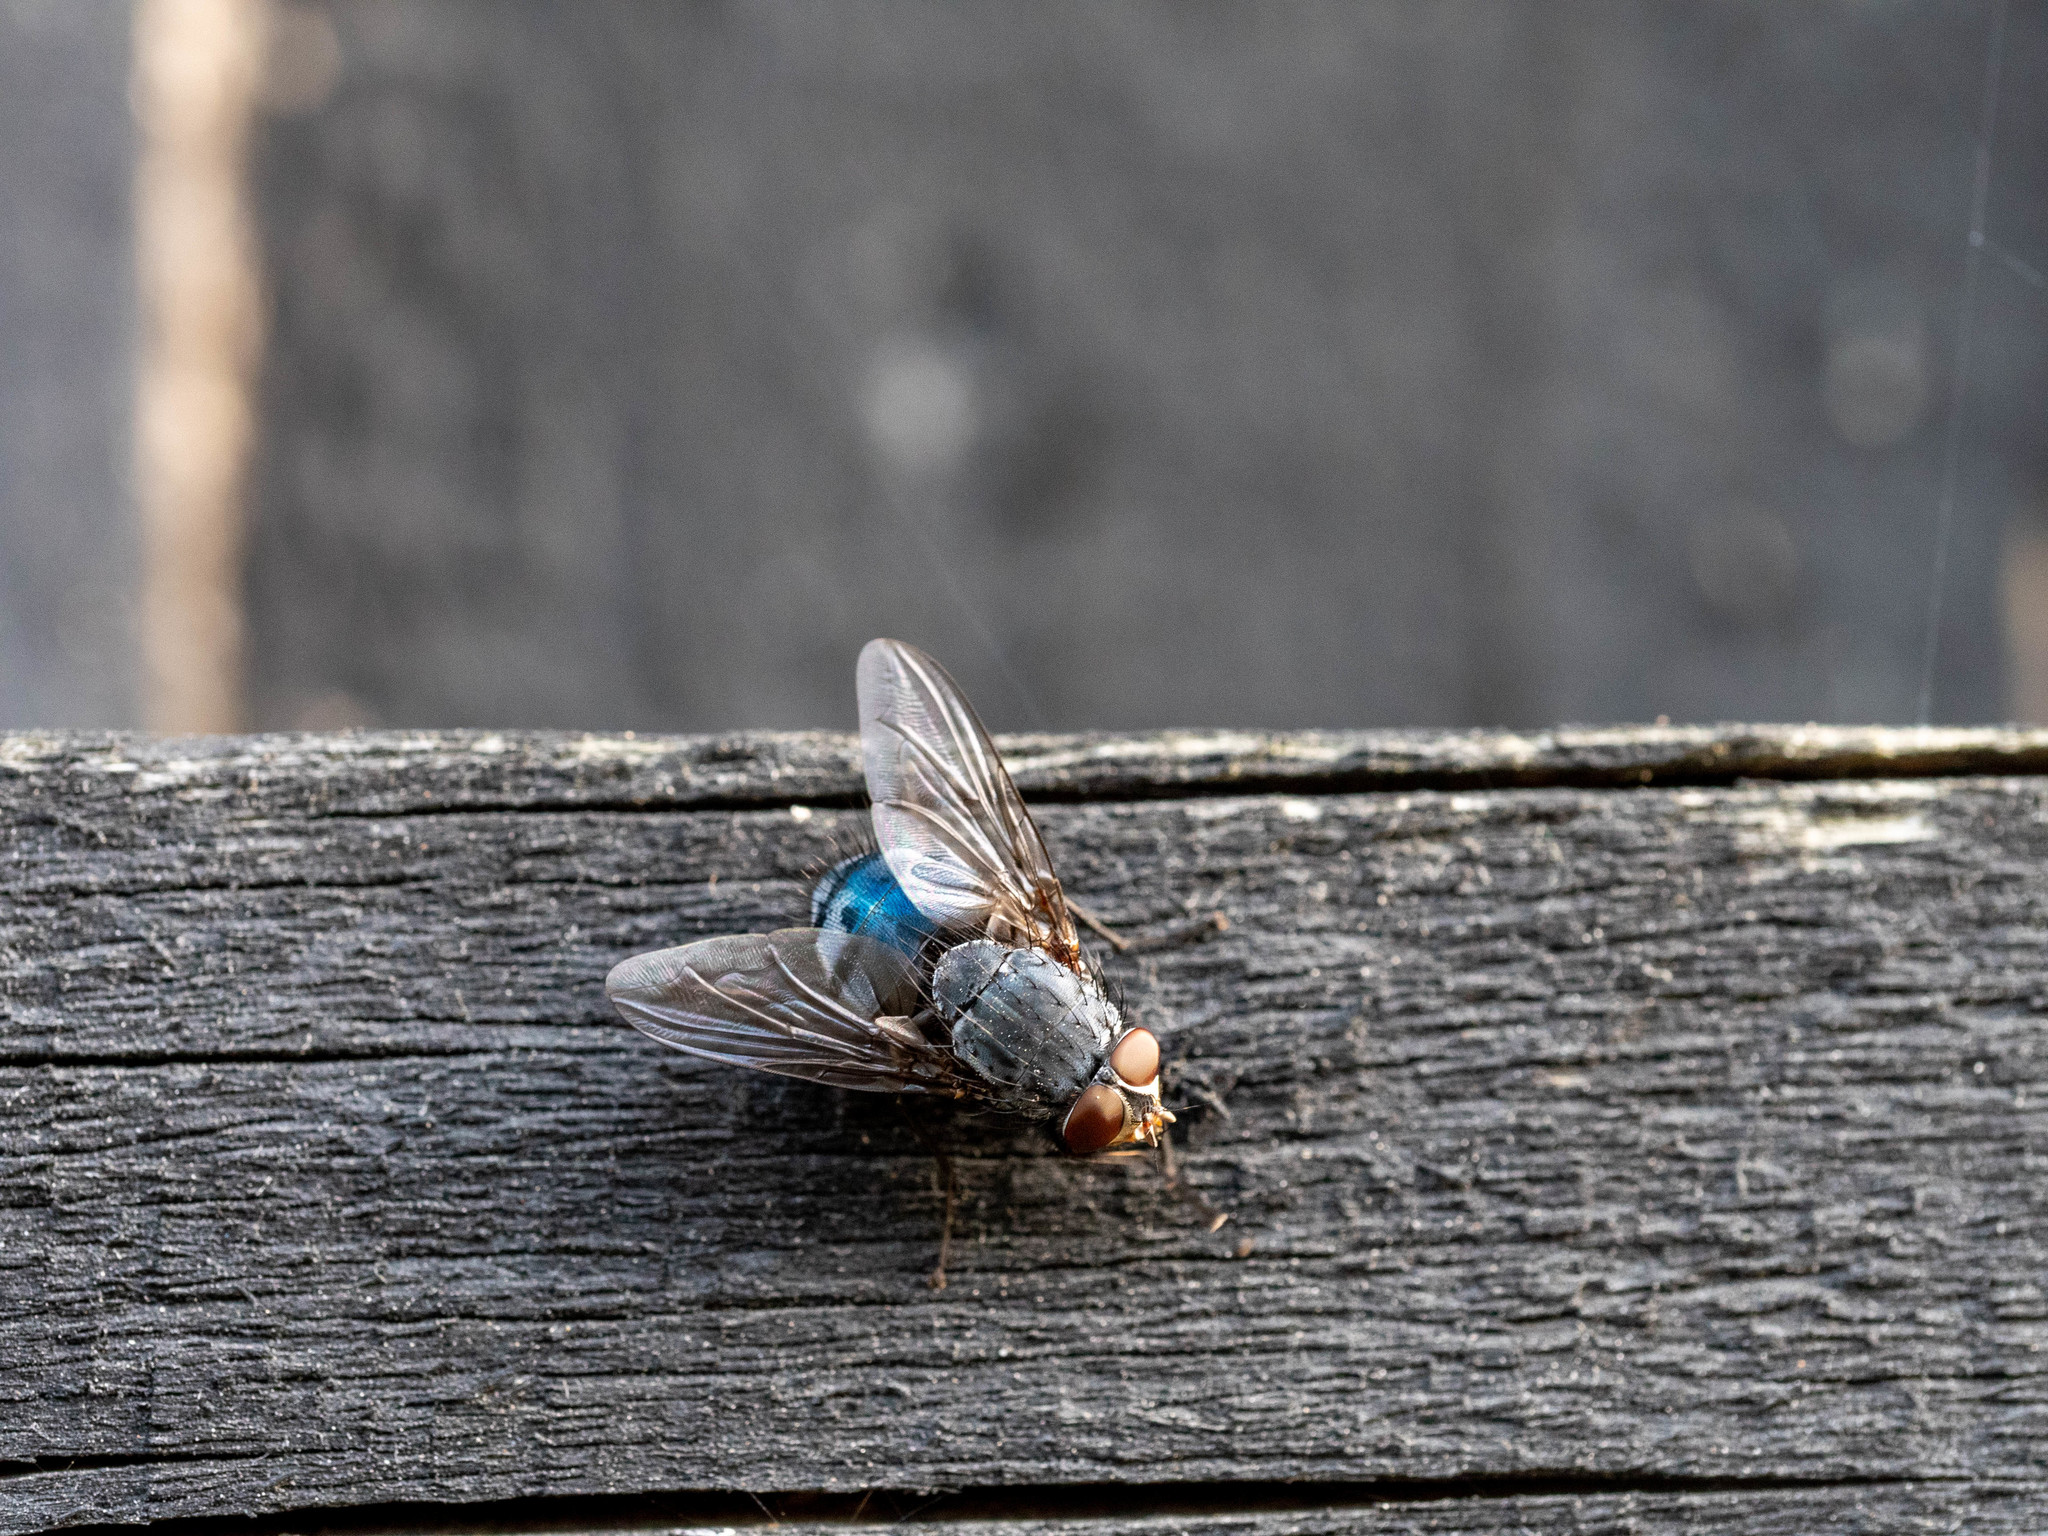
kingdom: Animalia
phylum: Arthropoda
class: Insecta
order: Diptera
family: Calliphoridae
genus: Calliphora
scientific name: Calliphora vicina
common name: Common blow flie
